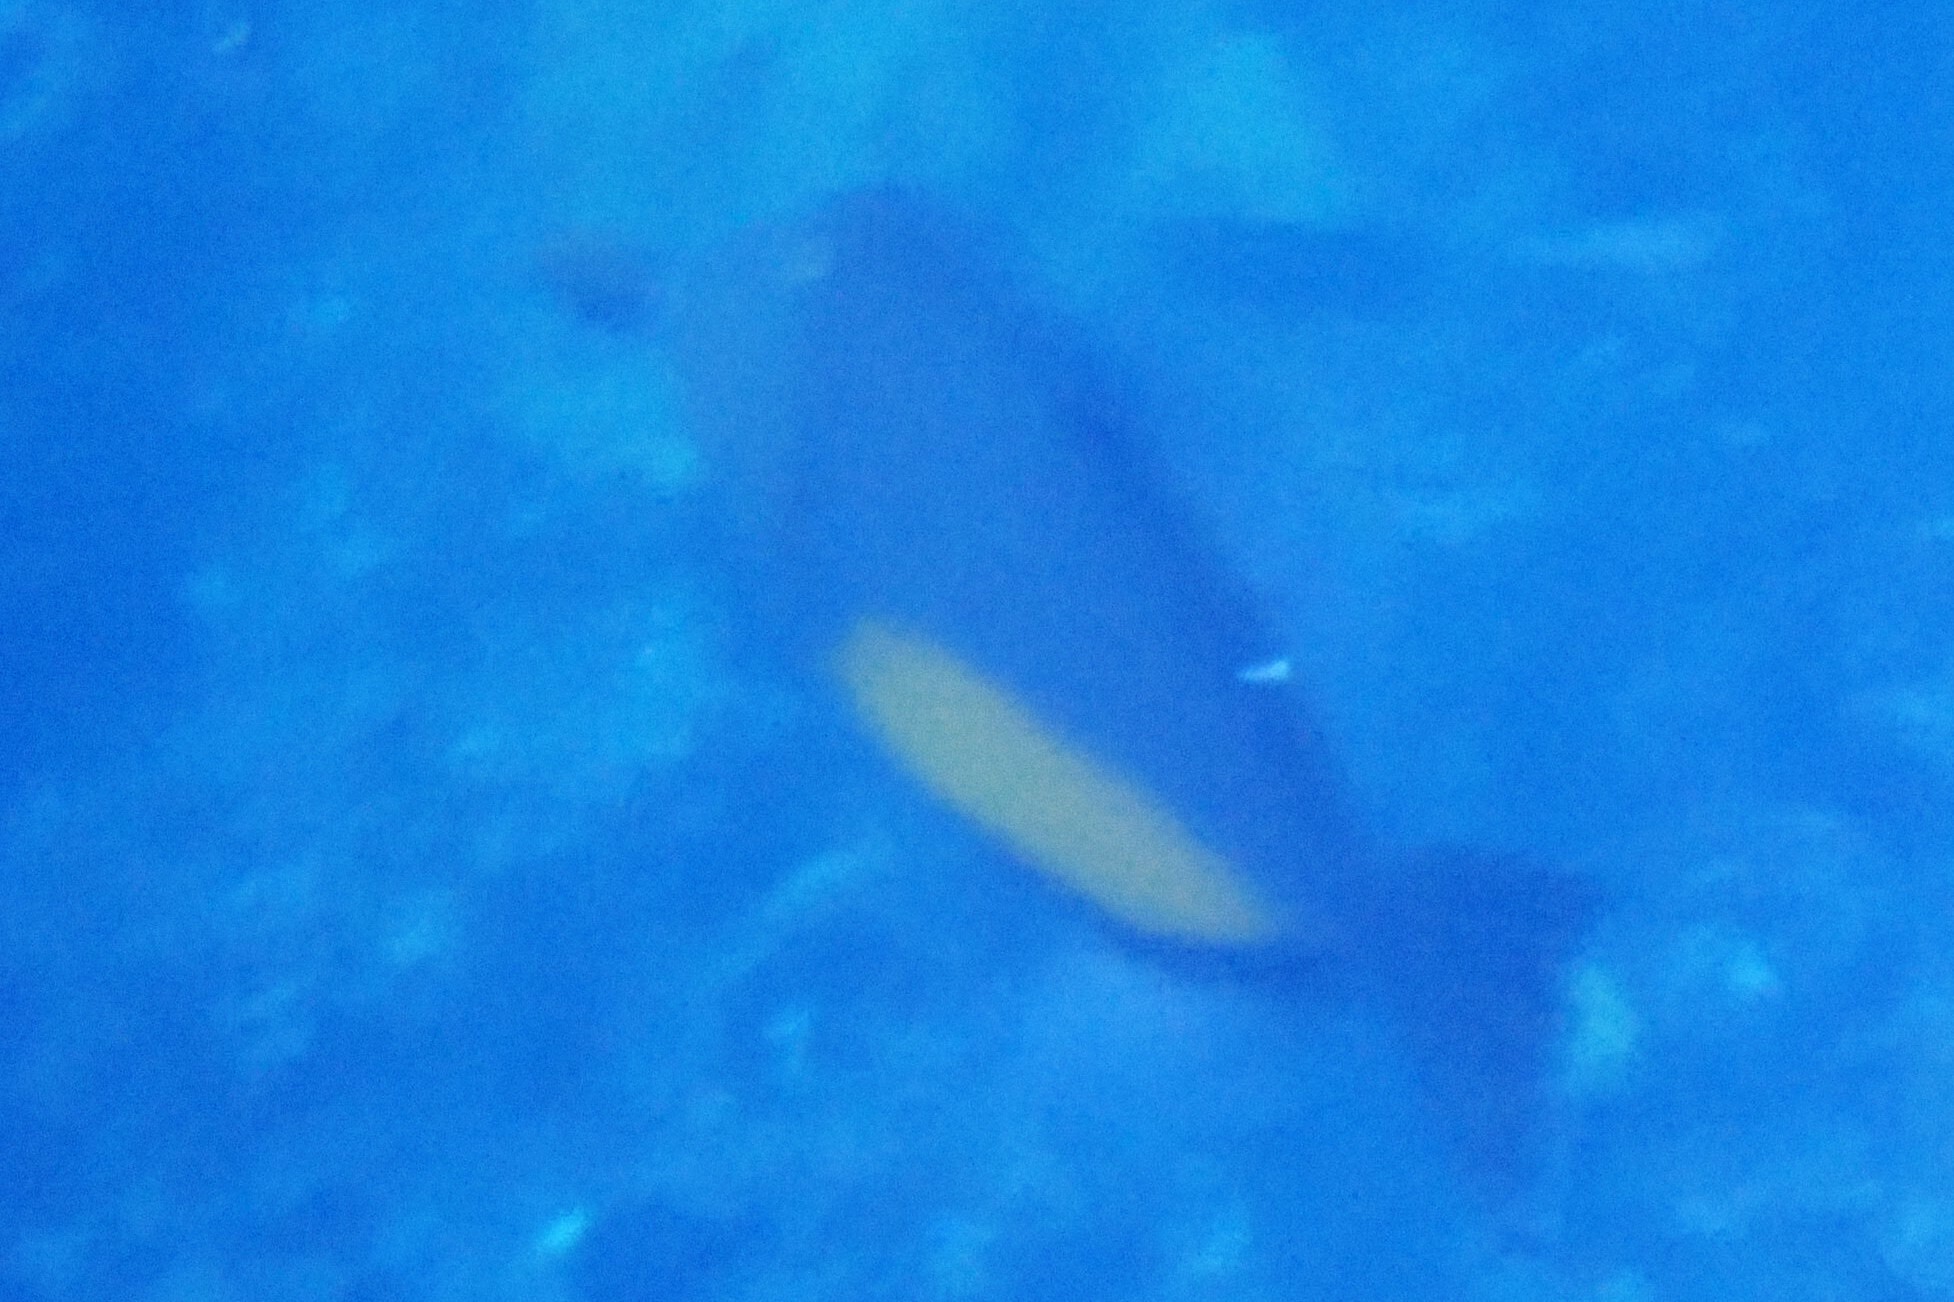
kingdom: Animalia
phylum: Chordata
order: Tetraodontiformes
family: Balistidae
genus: Sufflamen
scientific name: Sufflamen verres
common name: Orangeside triggerfish
